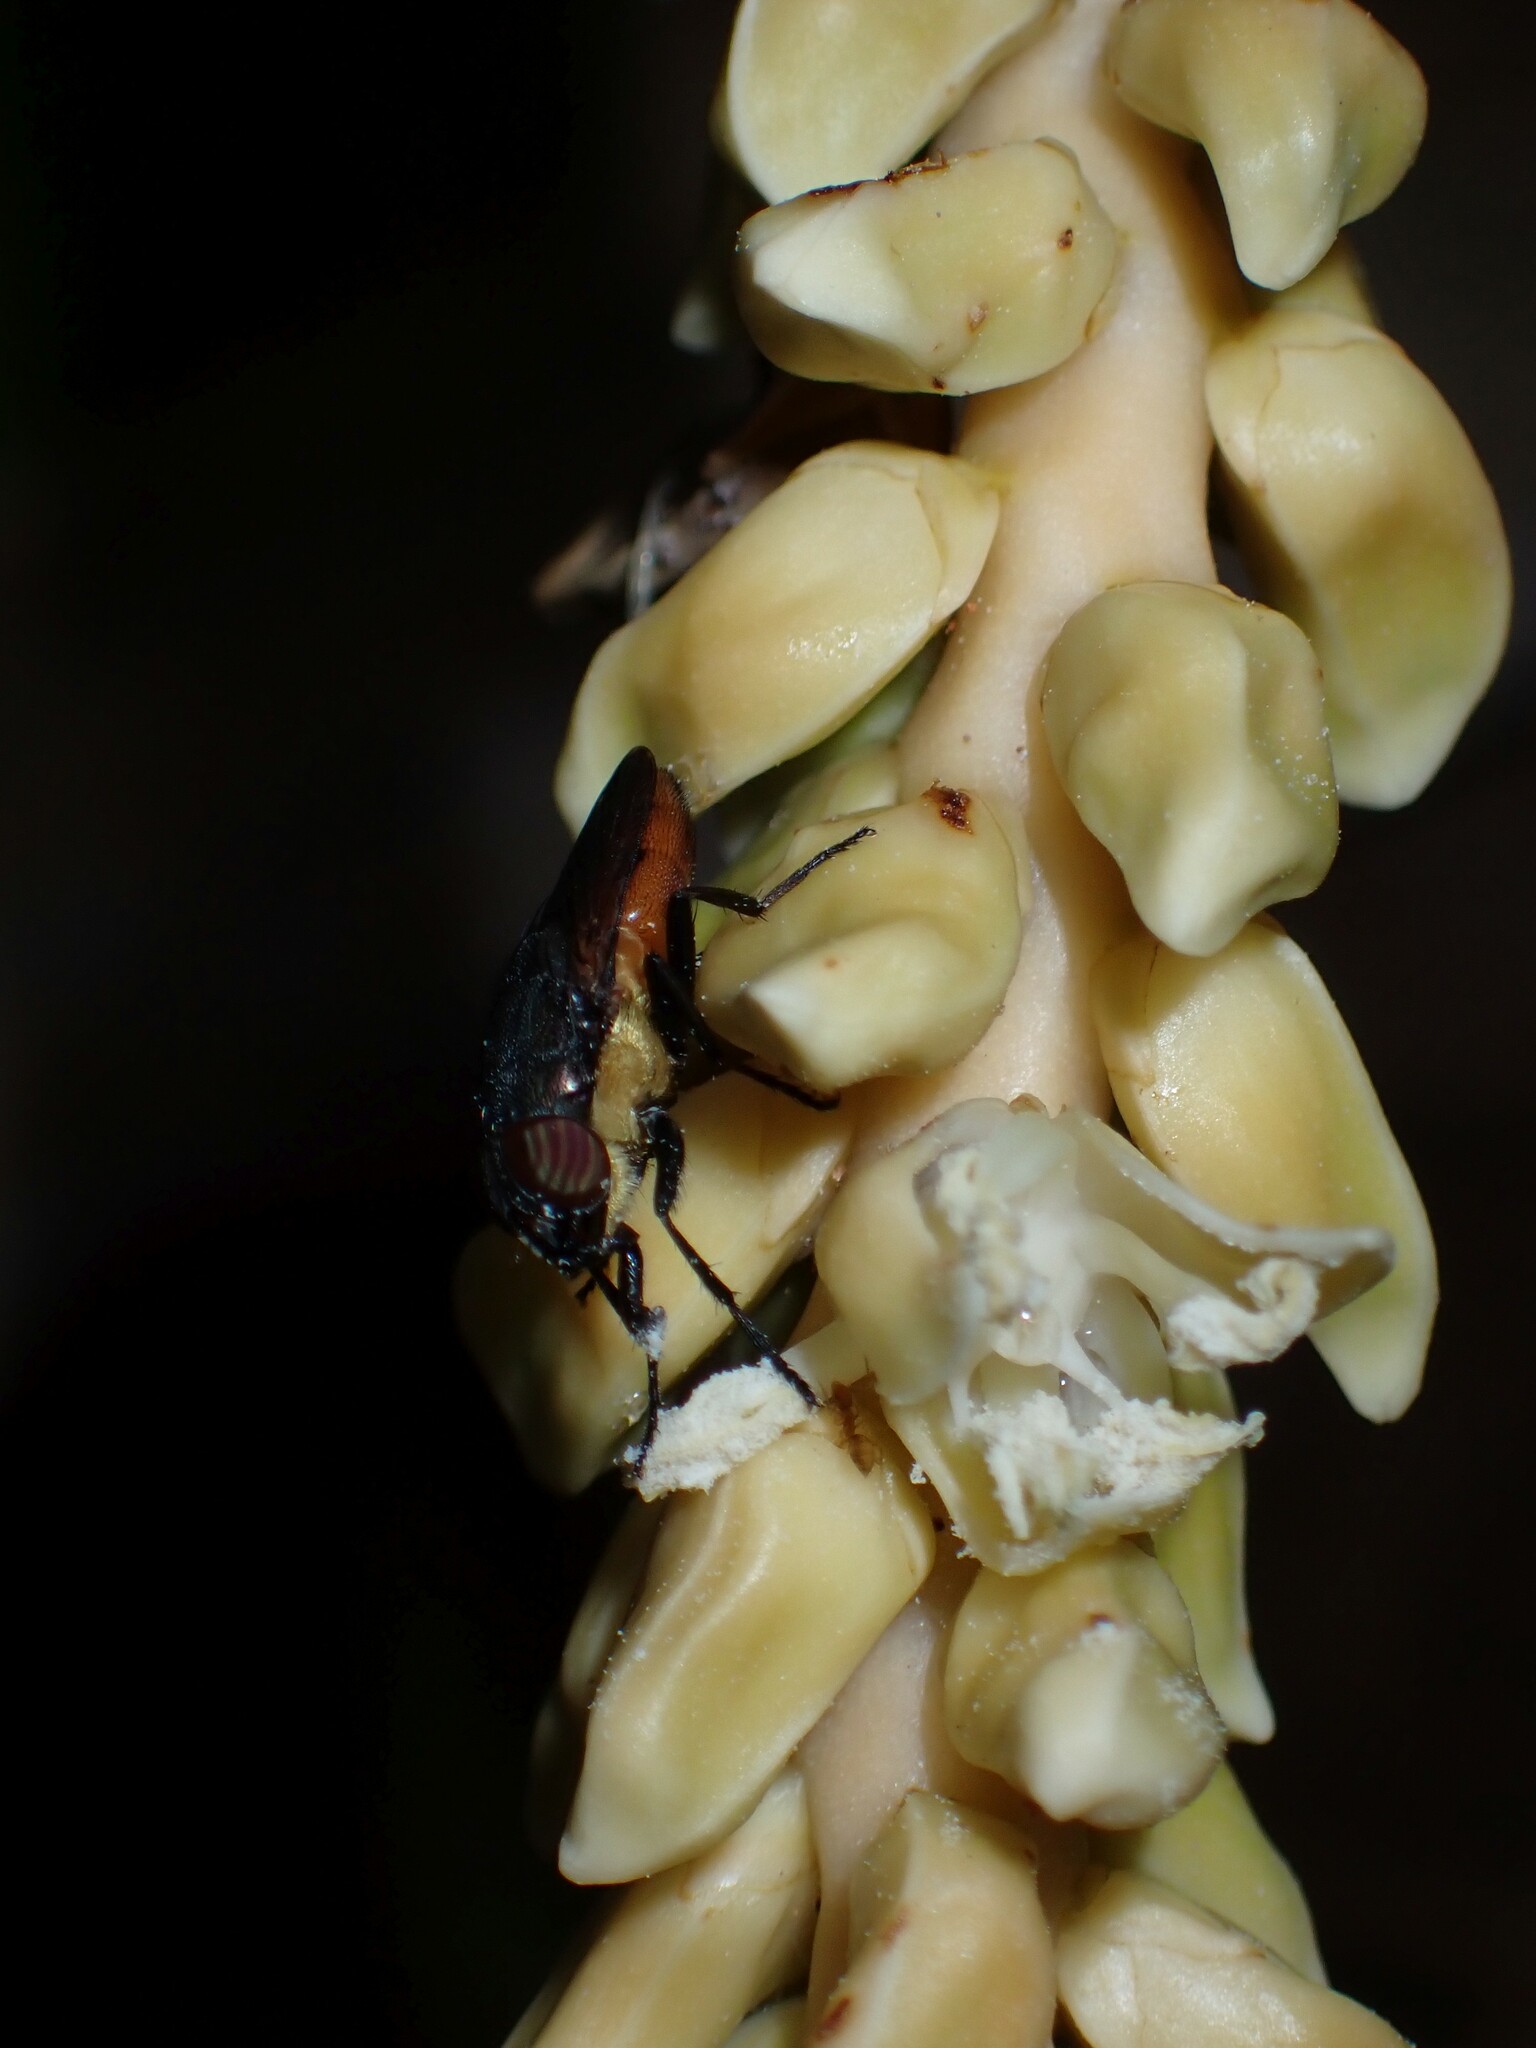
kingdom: Animalia
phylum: Arthropoda
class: Insecta
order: Diptera
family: Calliphoridae
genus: Idiellopsis
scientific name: Idiellopsis xanthogaster
